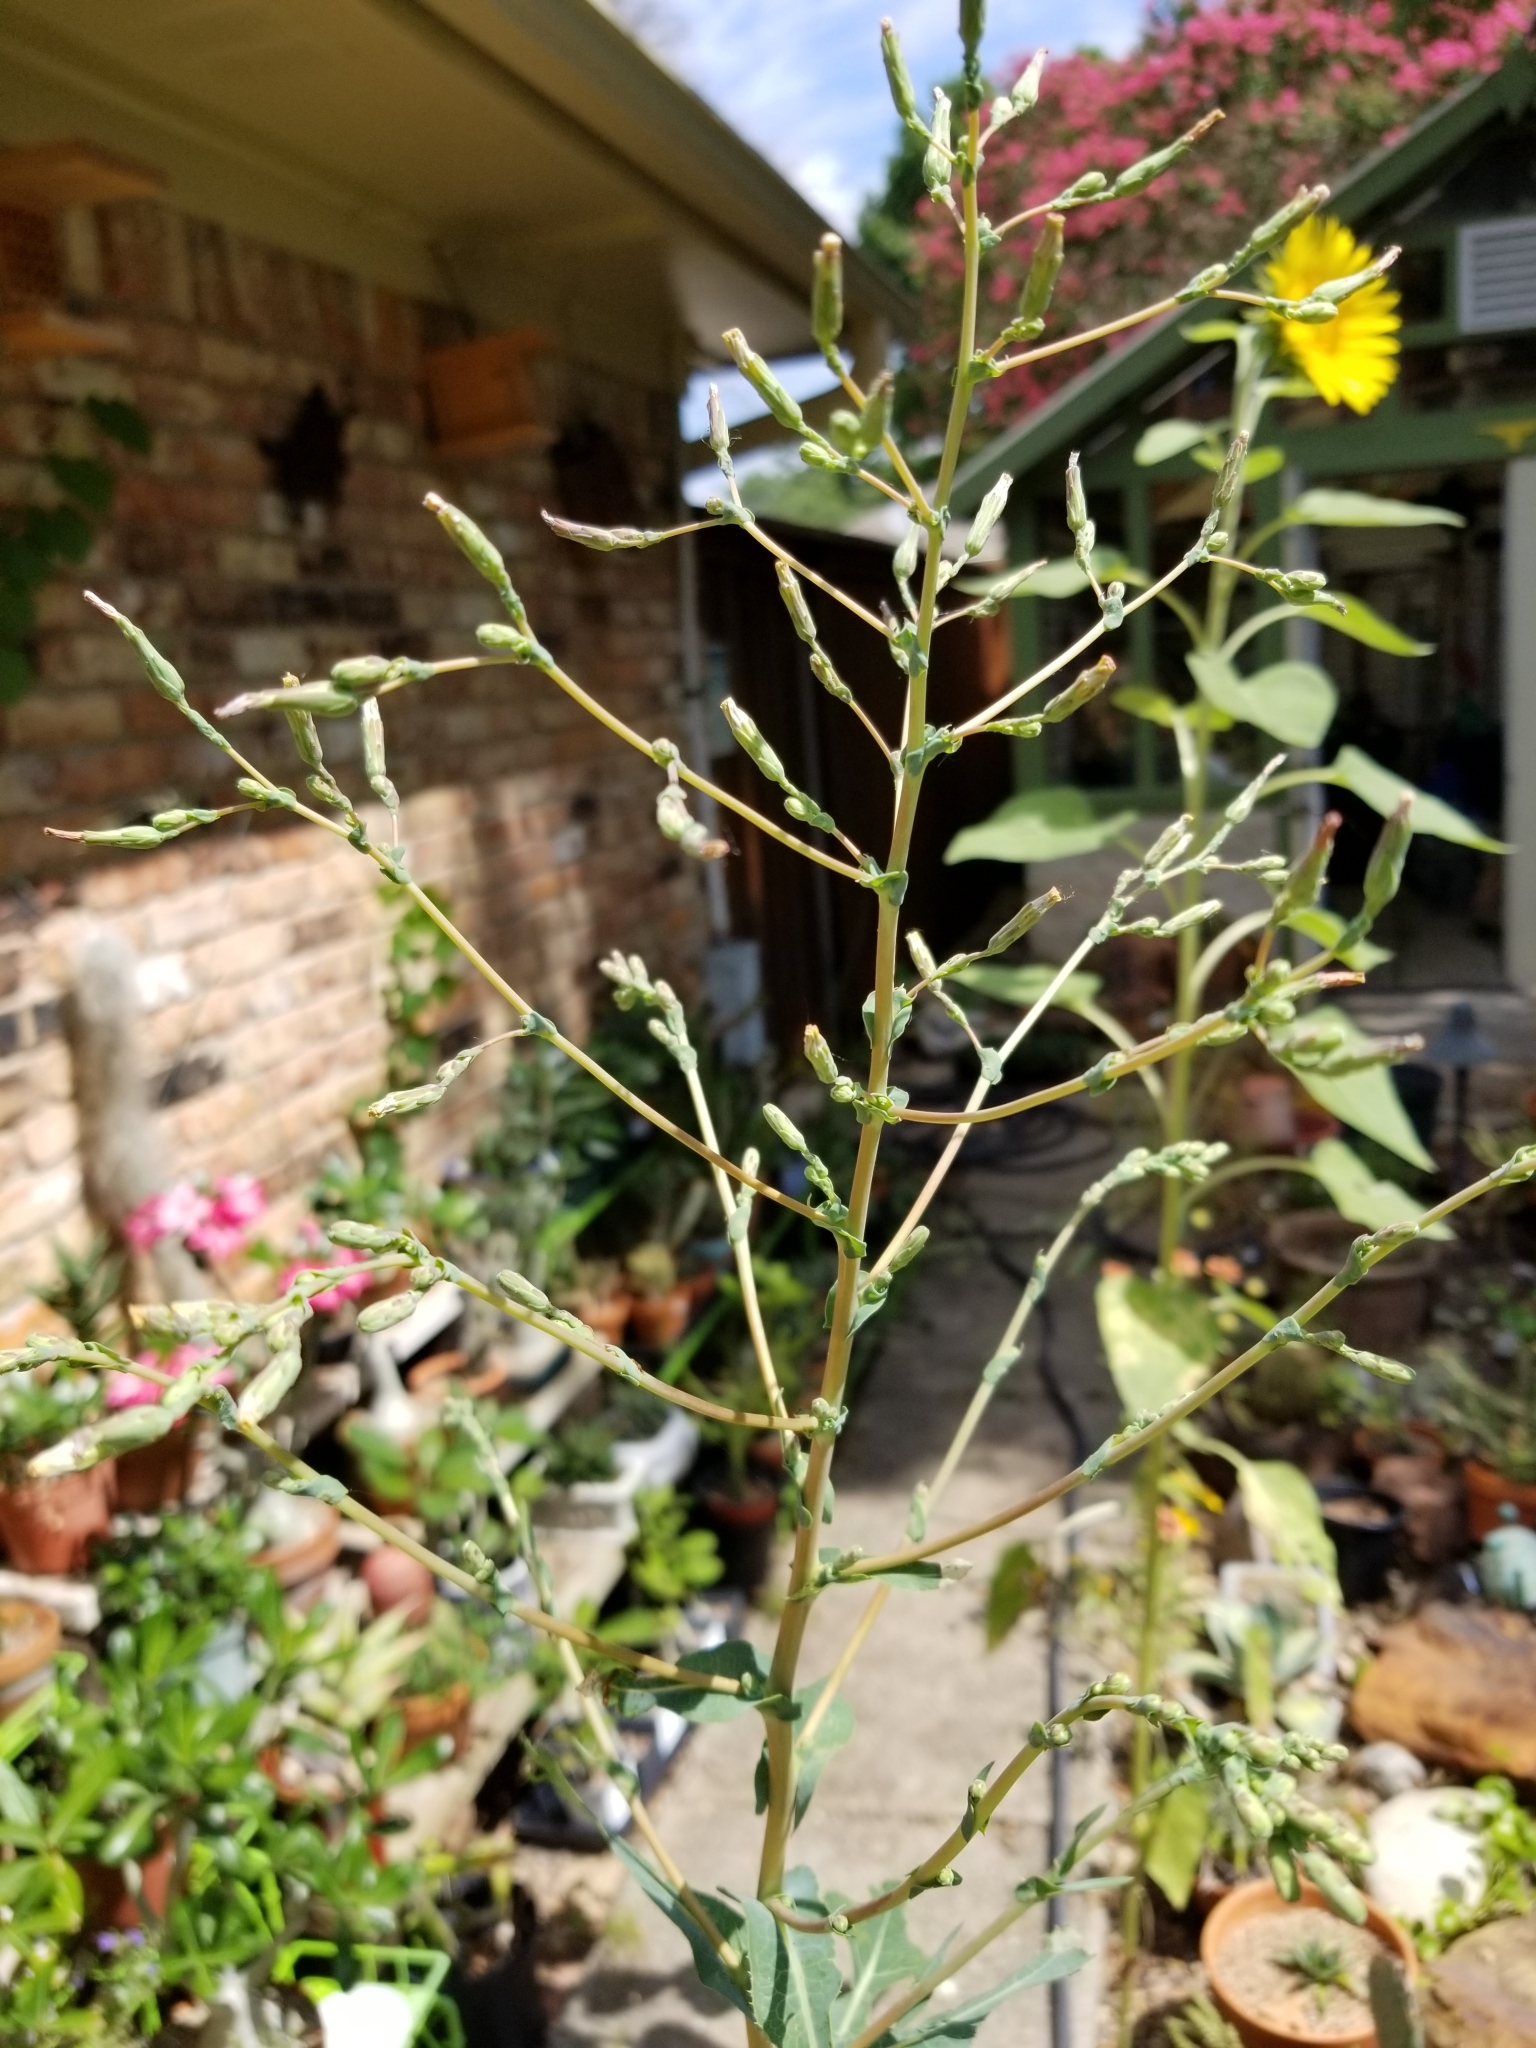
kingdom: Plantae
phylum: Tracheophyta
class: Magnoliopsida
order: Asterales
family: Asteraceae
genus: Lactuca
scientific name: Lactuca serriola
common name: Prickly lettuce
